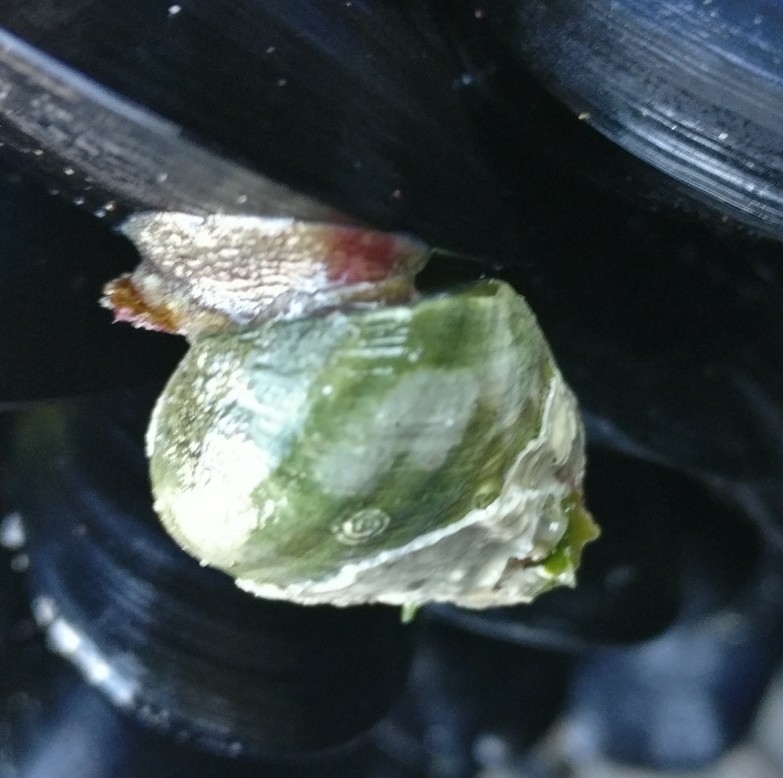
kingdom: Animalia
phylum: Mollusca
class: Gastropoda
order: Trochida
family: Trochidae
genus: Micrelenchus
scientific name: Micrelenchus purpureus
